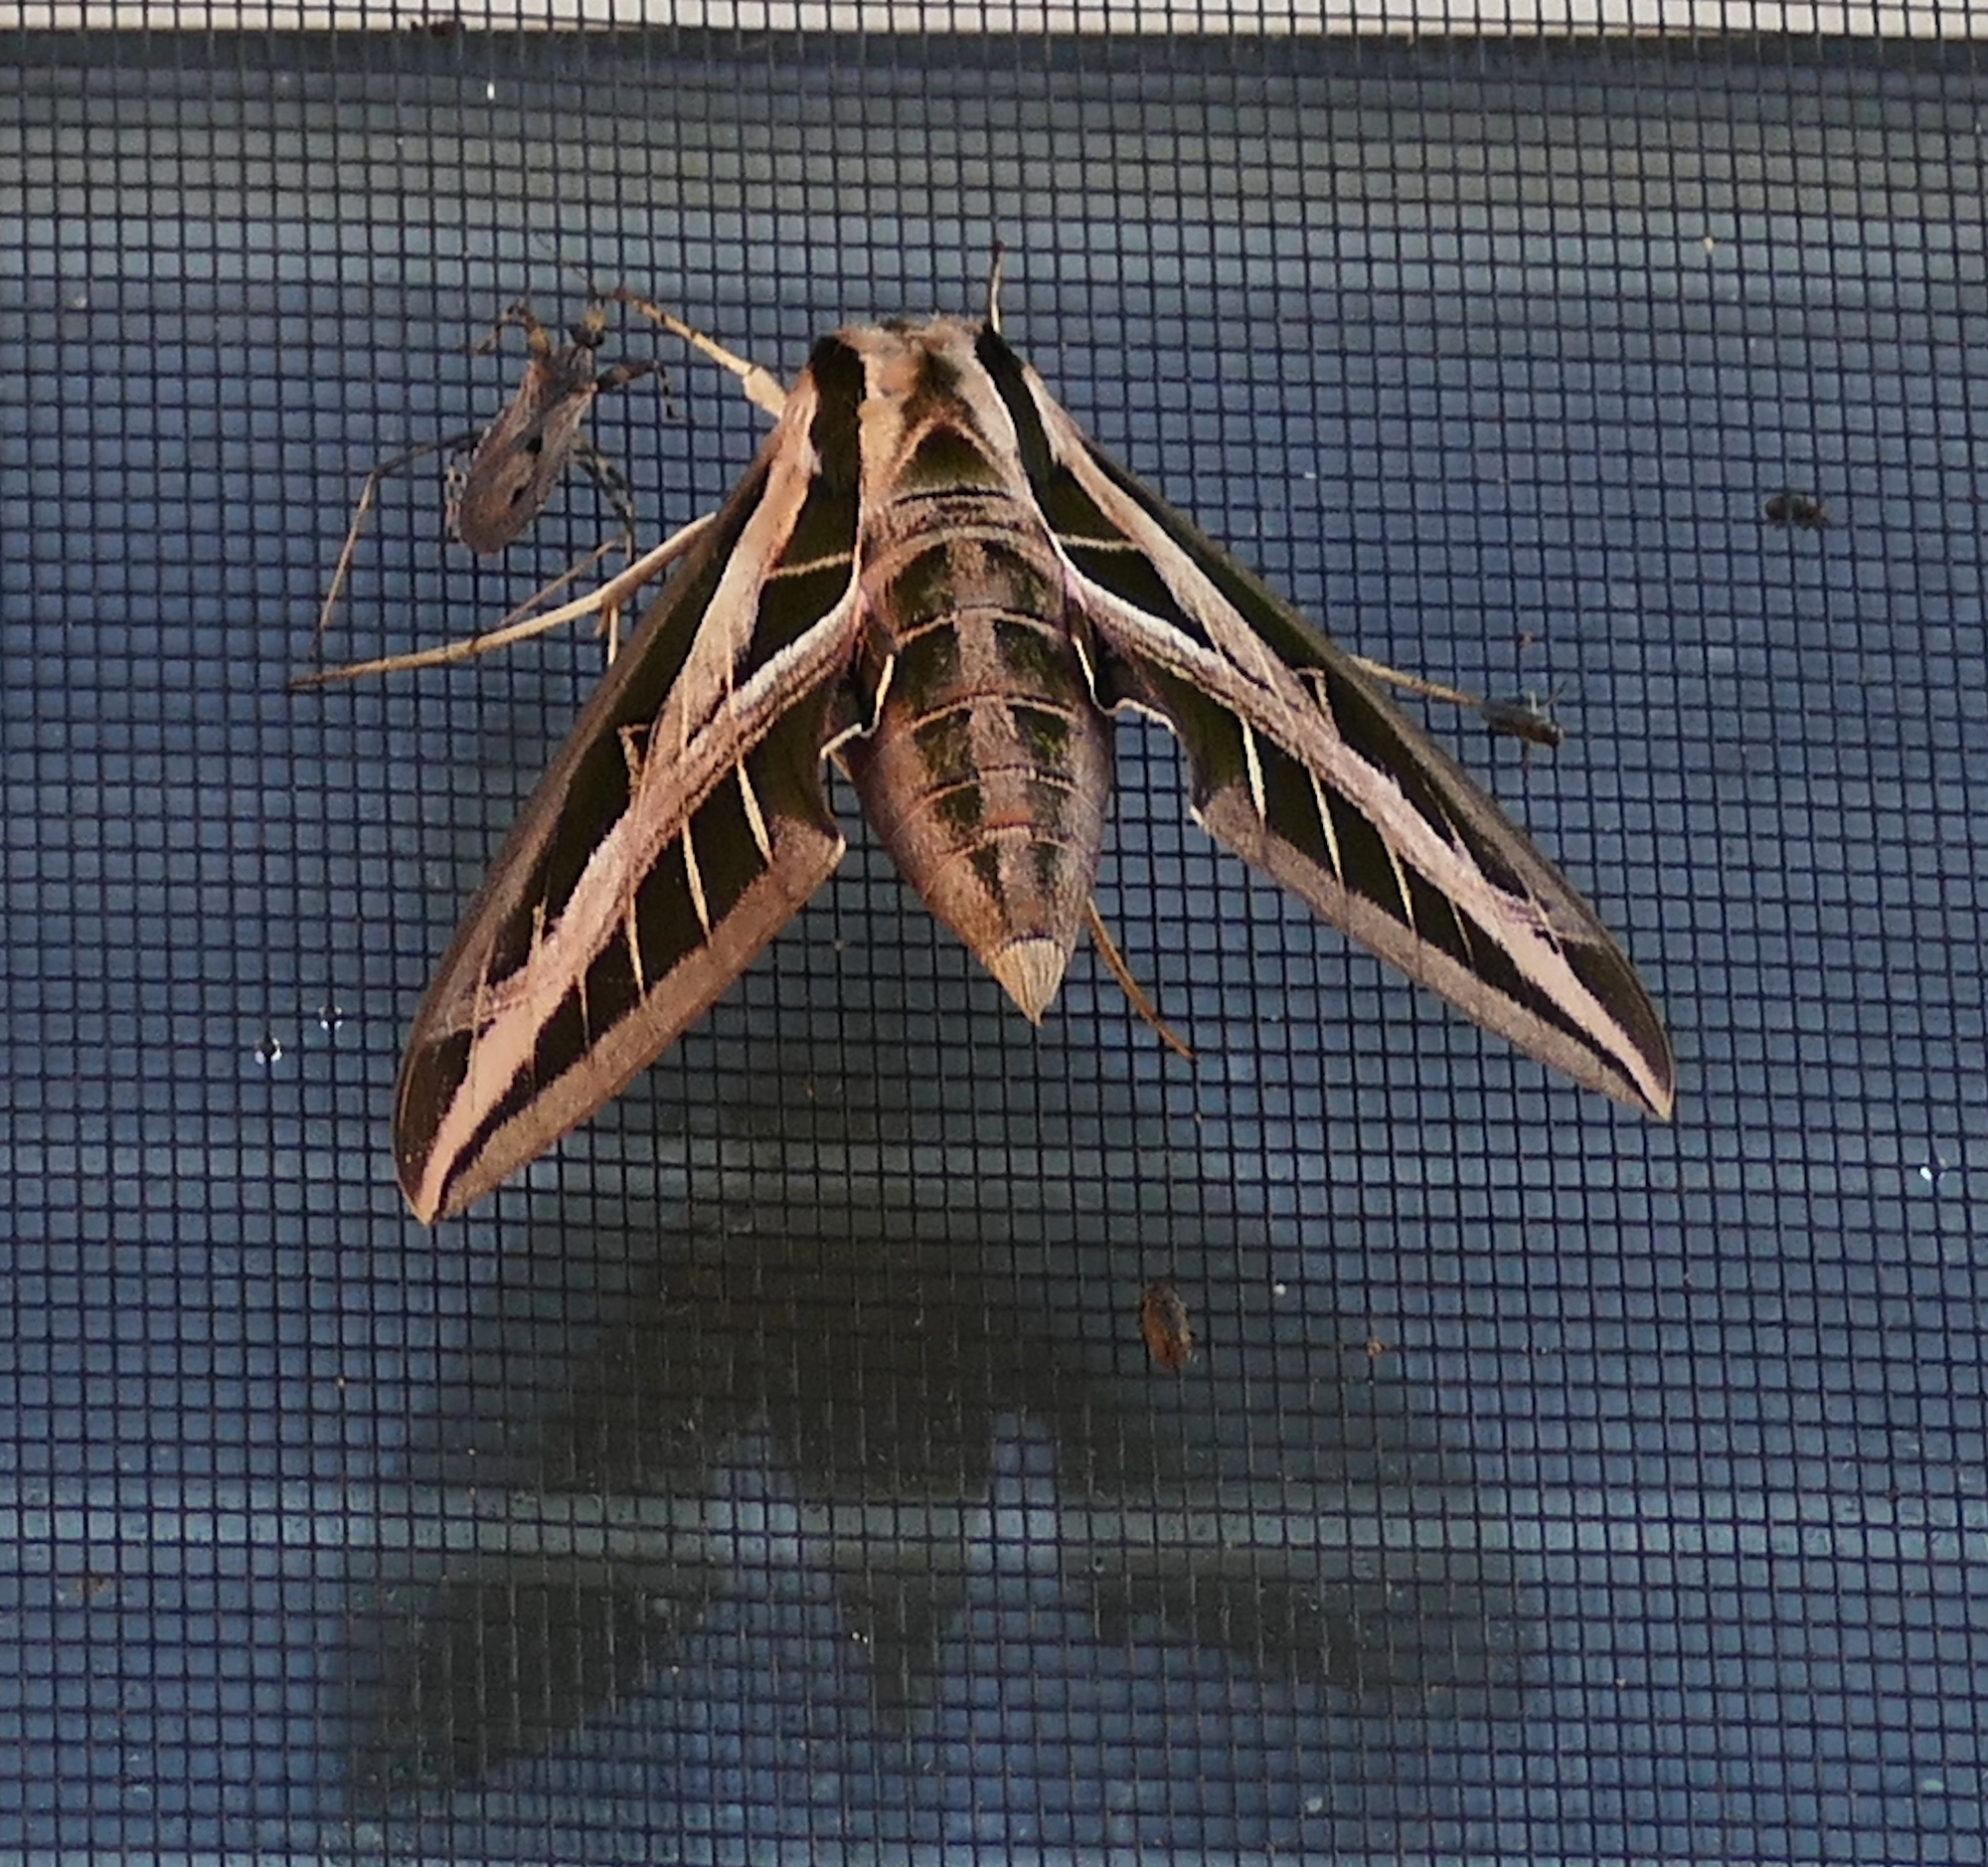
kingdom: Animalia
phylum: Arthropoda
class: Insecta
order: Lepidoptera
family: Sphingidae
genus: Eumorpha
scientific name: Eumorpha fasciatus
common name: Banded sphinx
